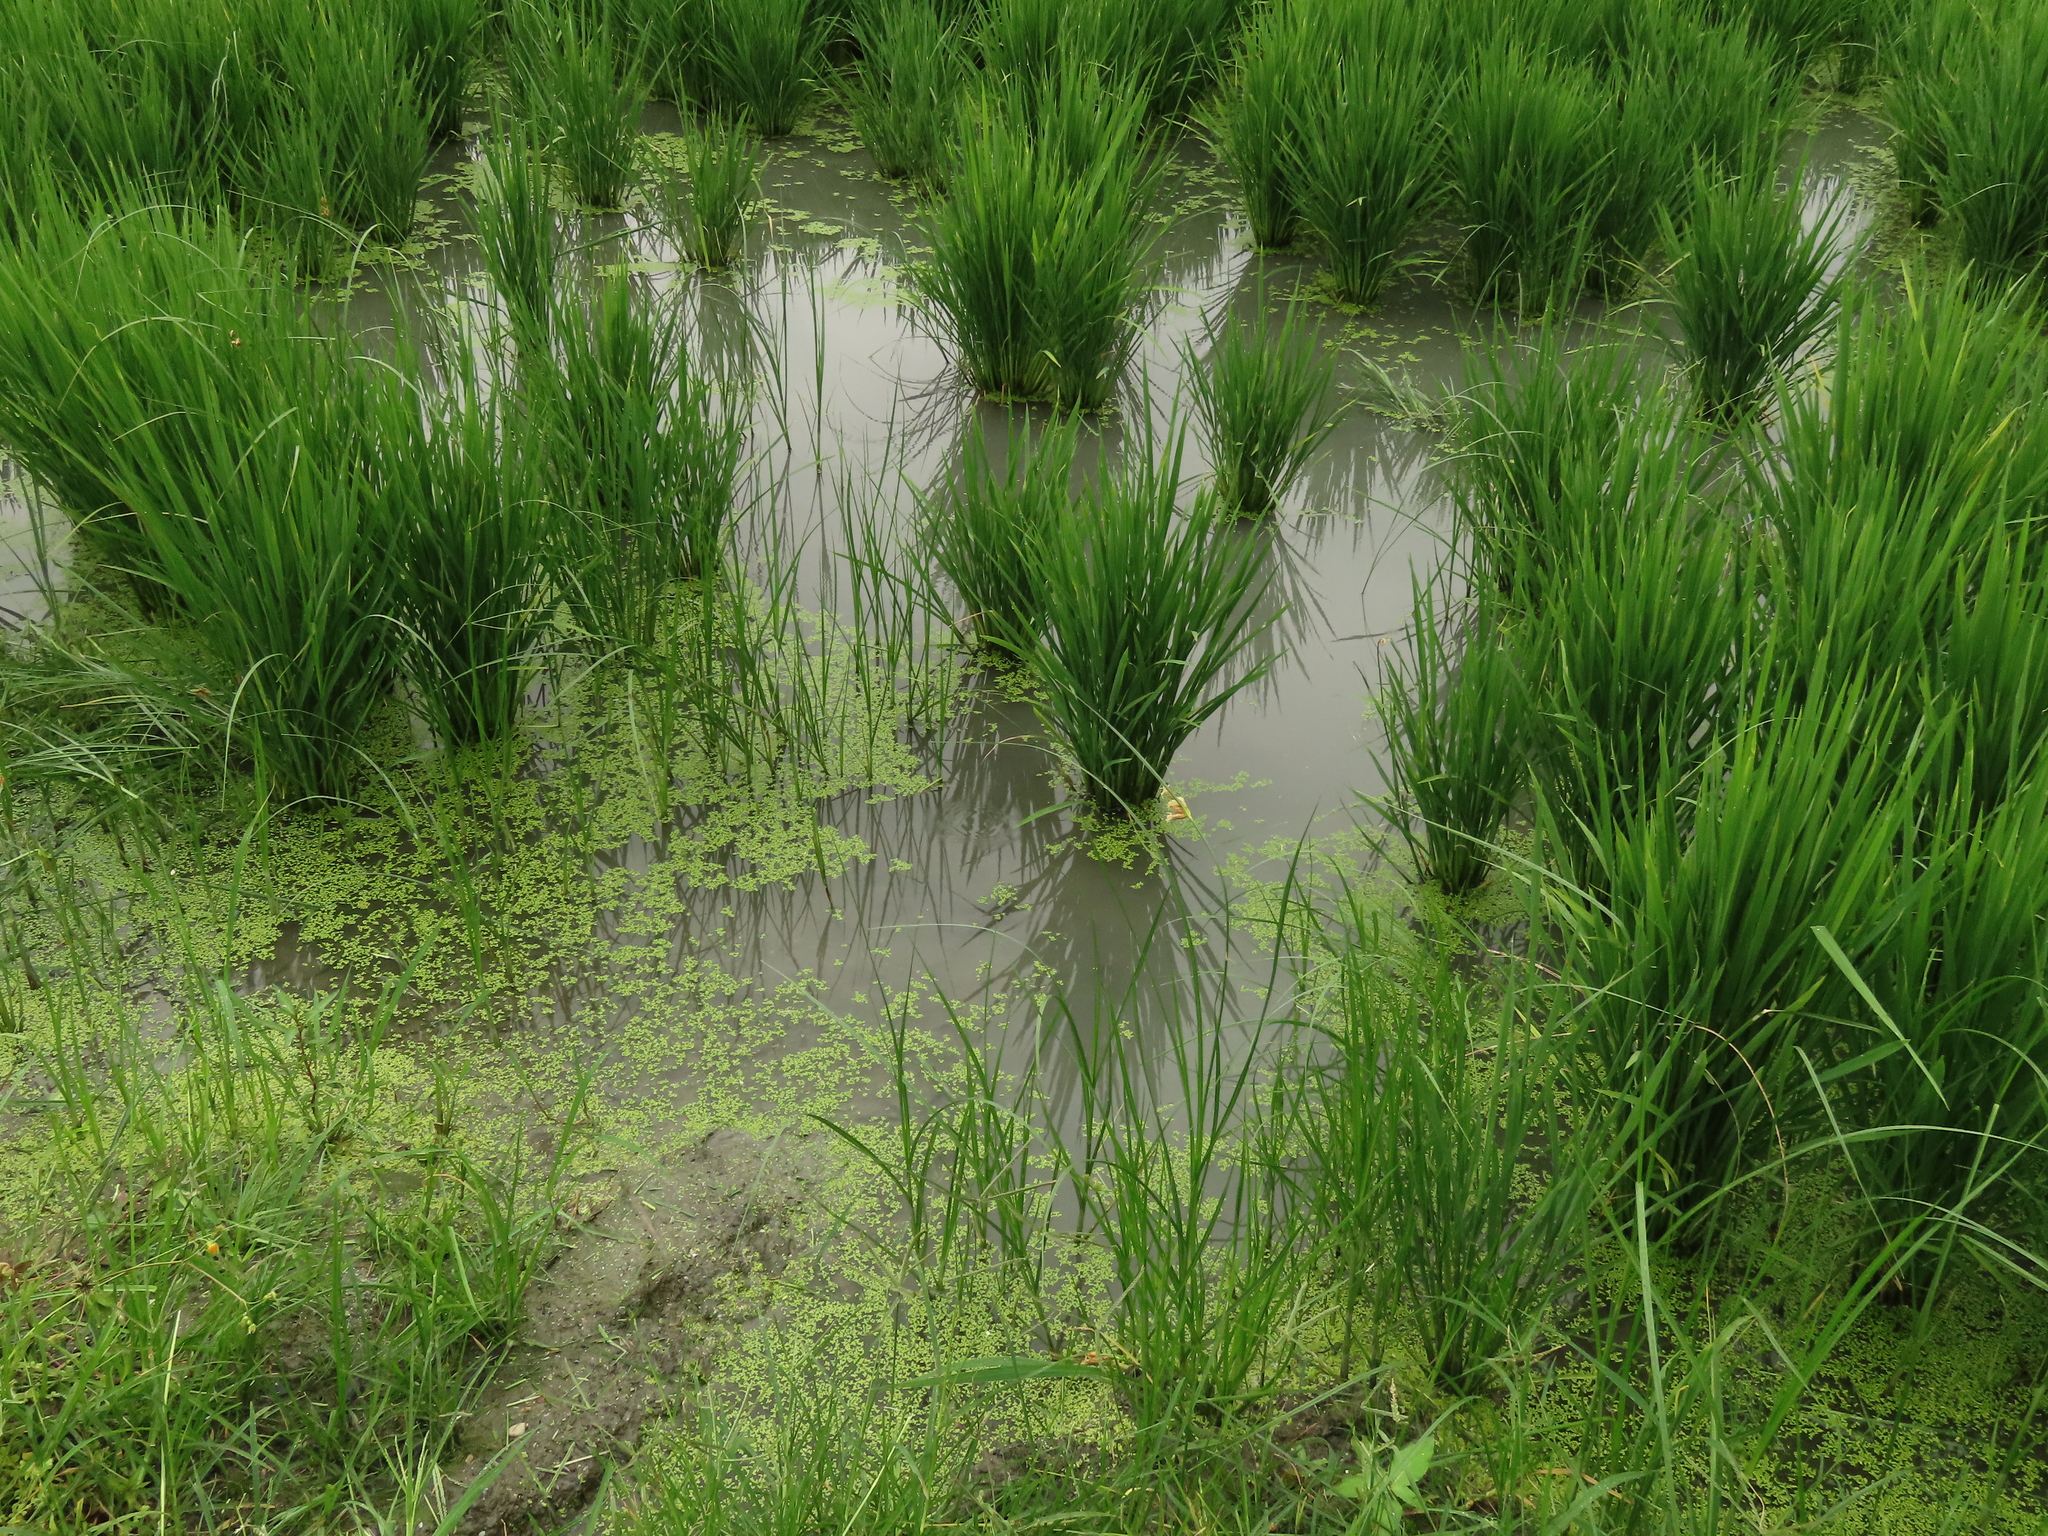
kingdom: Plantae
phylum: Tracheophyta
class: Liliopsida
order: Alismatales
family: Araceae
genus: Lemna
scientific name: Lemna aequinoctialis
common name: Duckweed
